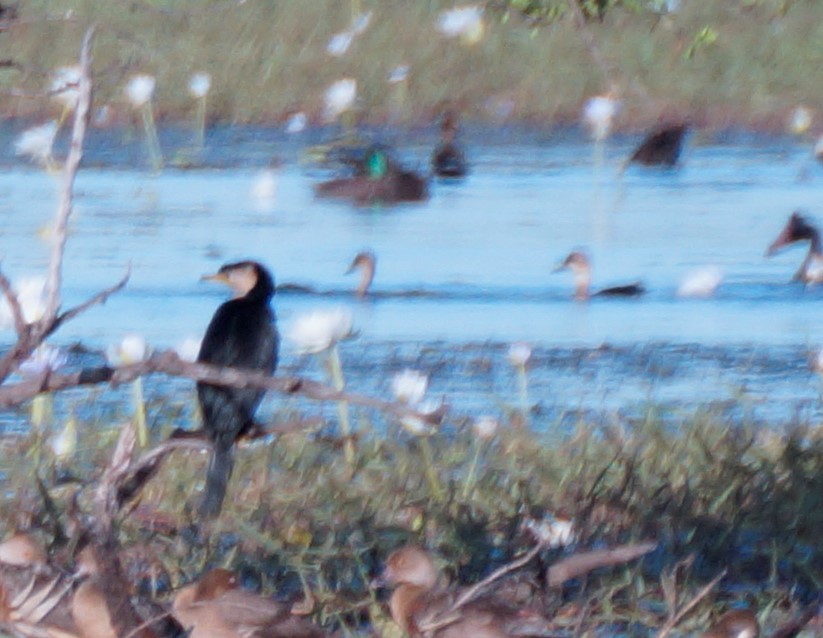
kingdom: Animalia
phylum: Chordata
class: Aves
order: Suliformes
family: Phalacrocoracidae
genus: Microcarbo
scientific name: Microcarbo melanoleucos
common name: Little pied cormorant
